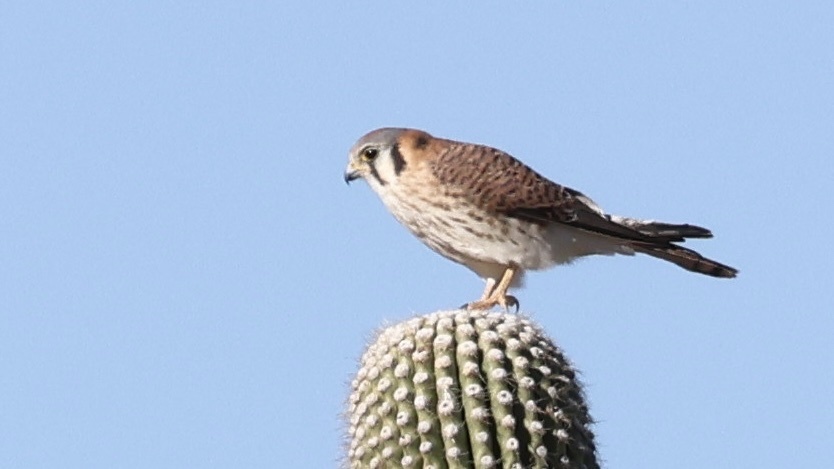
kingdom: Animalia
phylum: Chordata
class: Aves
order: Falconiformes
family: Falconidae
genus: Falco
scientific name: Falco sparverius
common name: American kestrel
